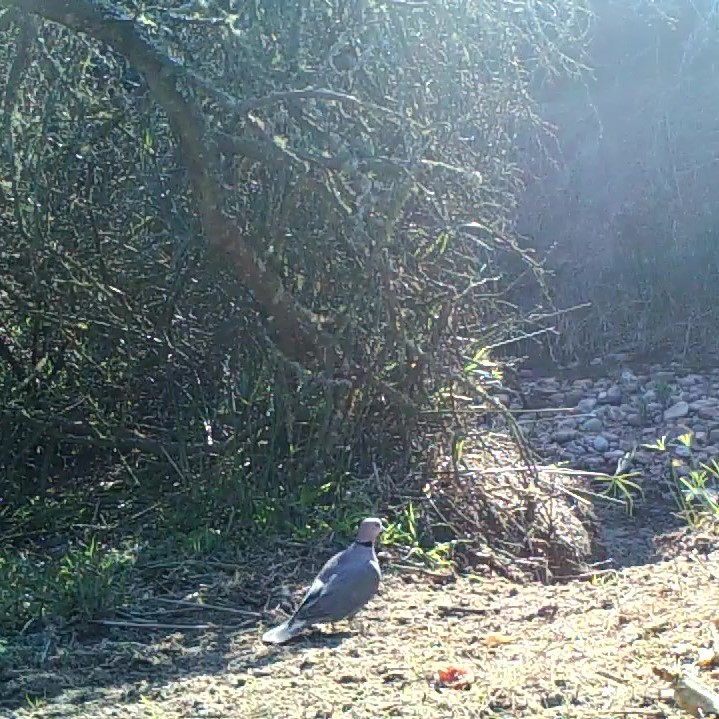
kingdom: Animalia
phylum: Chordata
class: Aves
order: Columbiformes
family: Columbidae
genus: Streptopelia
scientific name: Streptopelia semitorquata
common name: Red-eyed dove
